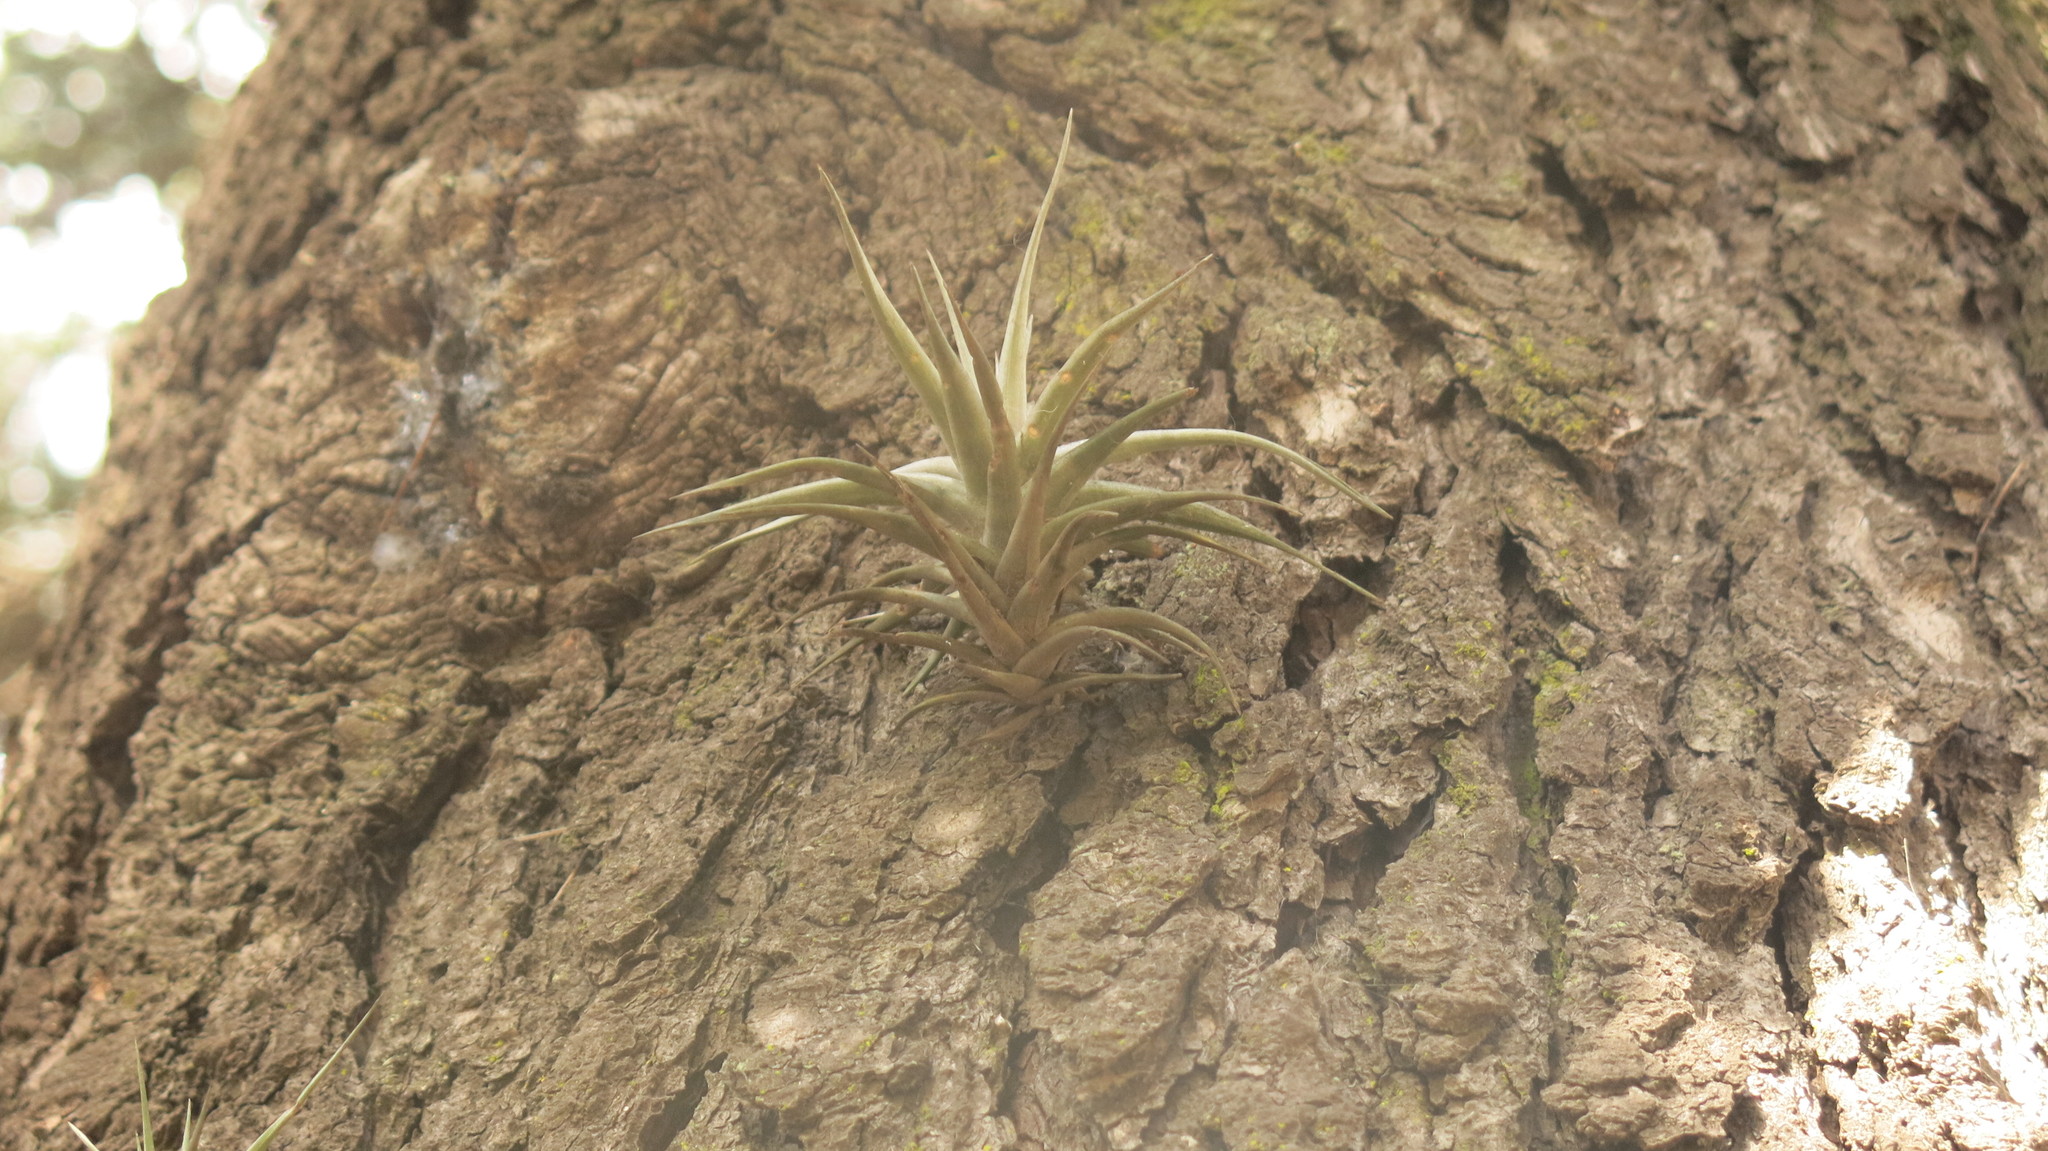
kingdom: Plantae
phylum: Tracheophyta
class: Liliopsida
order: Poales
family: Bromeliaceae
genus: Tillandsia
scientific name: Tillandsia aeranthos
